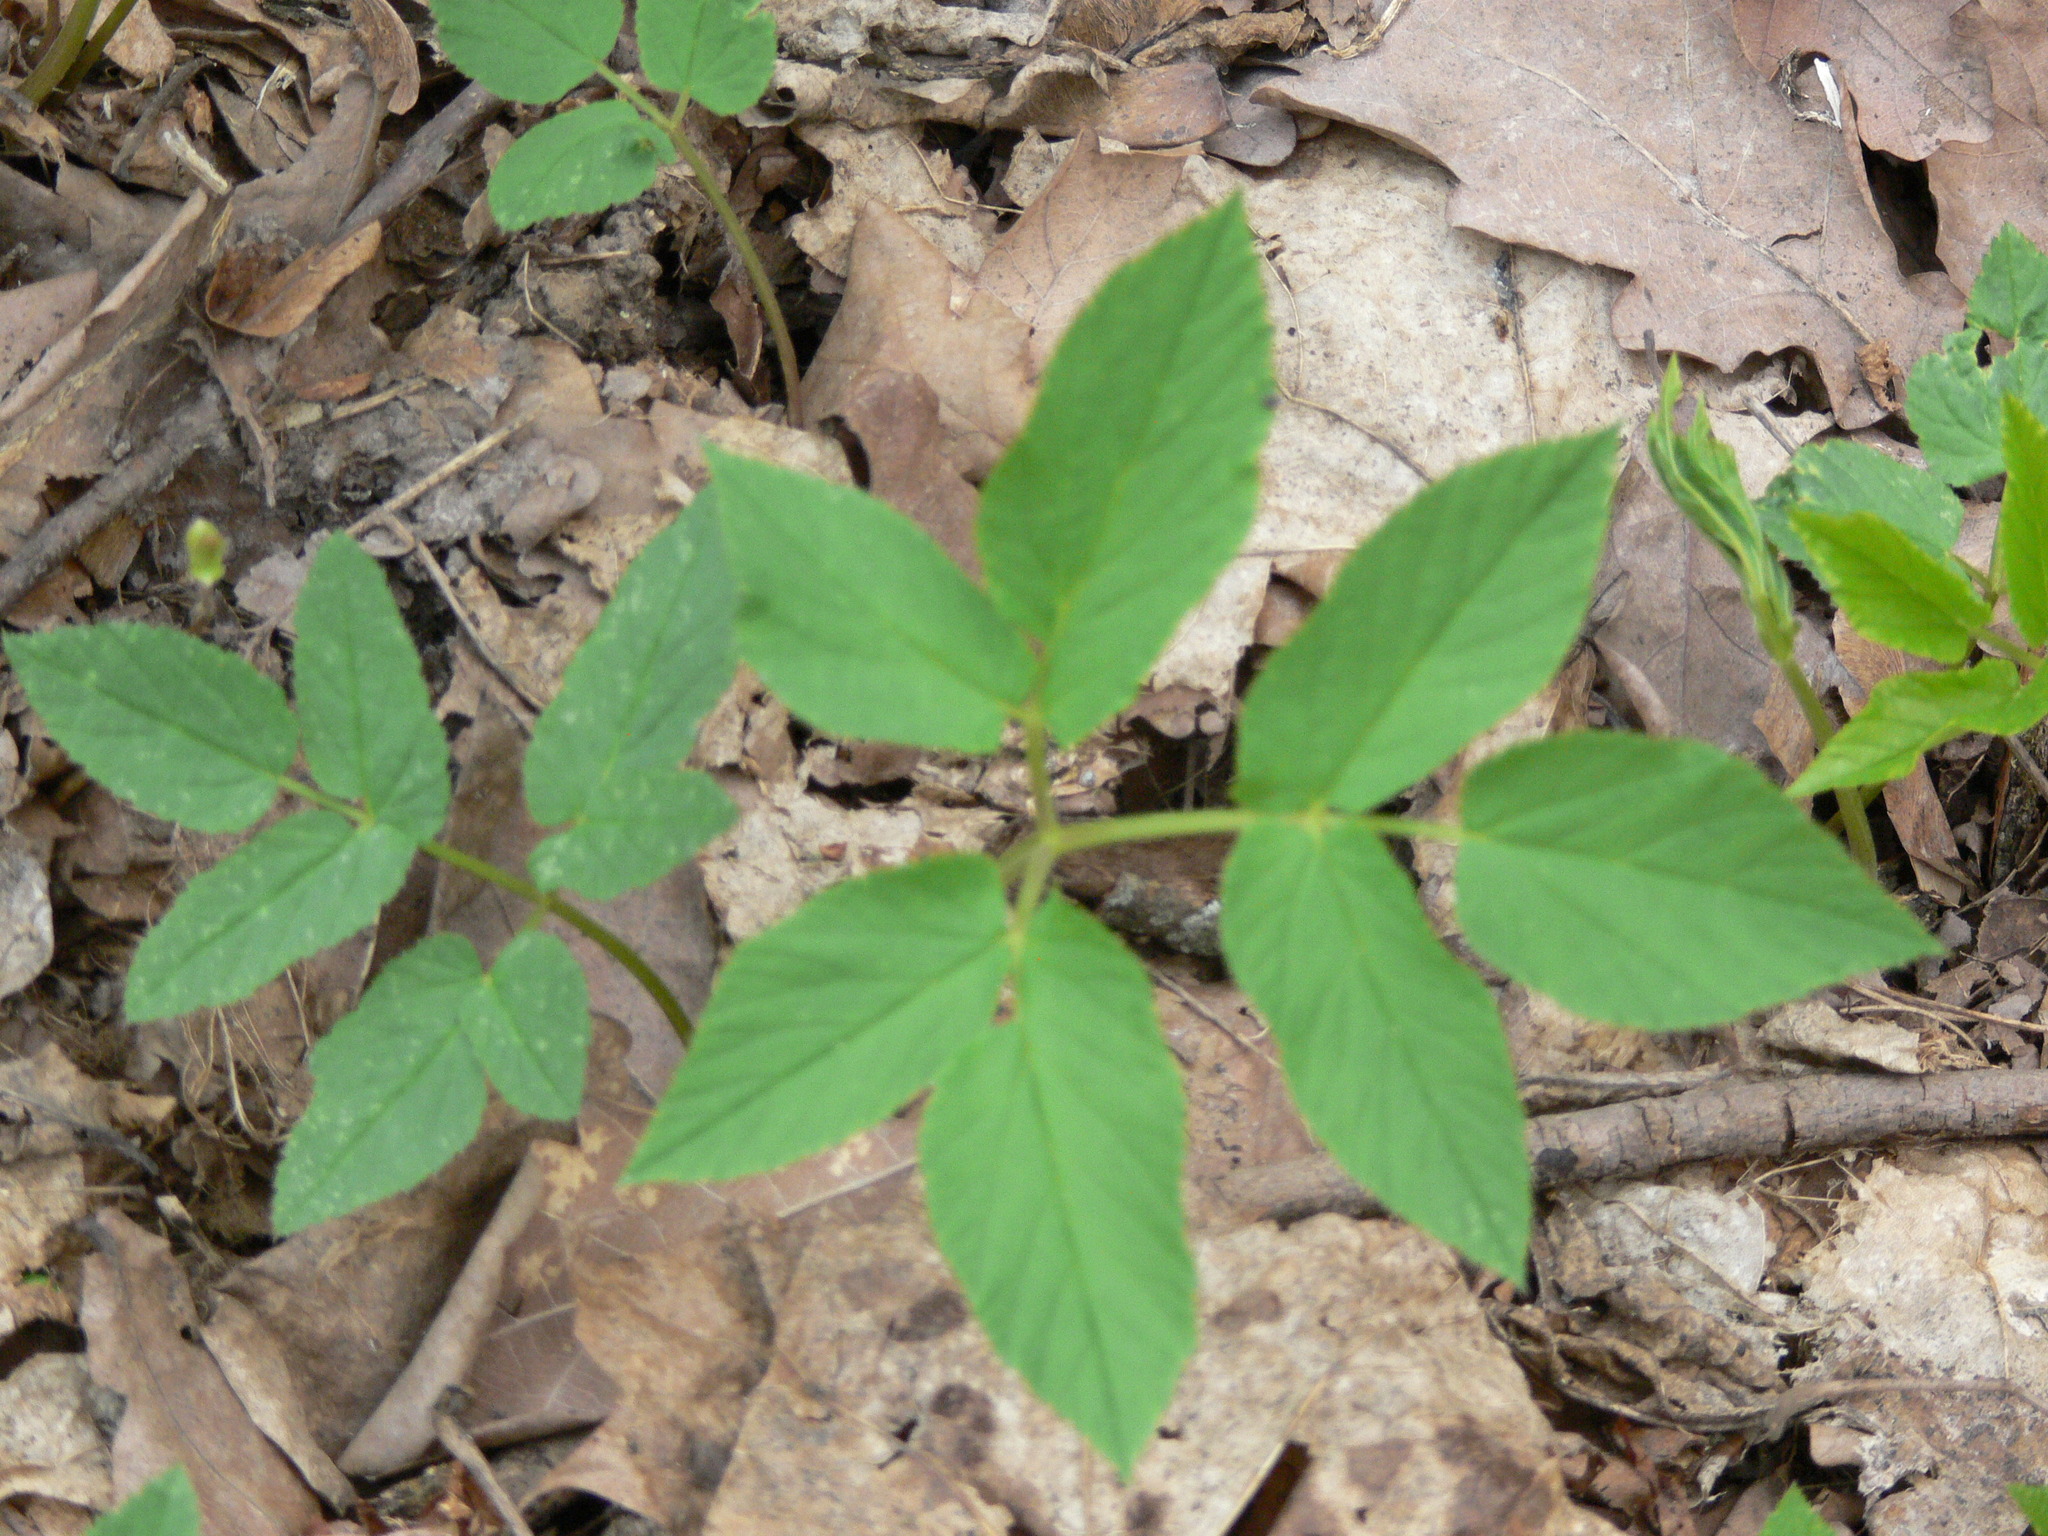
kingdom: Plantae
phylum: Tracheophyta
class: Magnoliopsida
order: Apiales
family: Apiaceae
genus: Aegopodium
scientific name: Aegopodium podagraria
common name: Ground-elder
